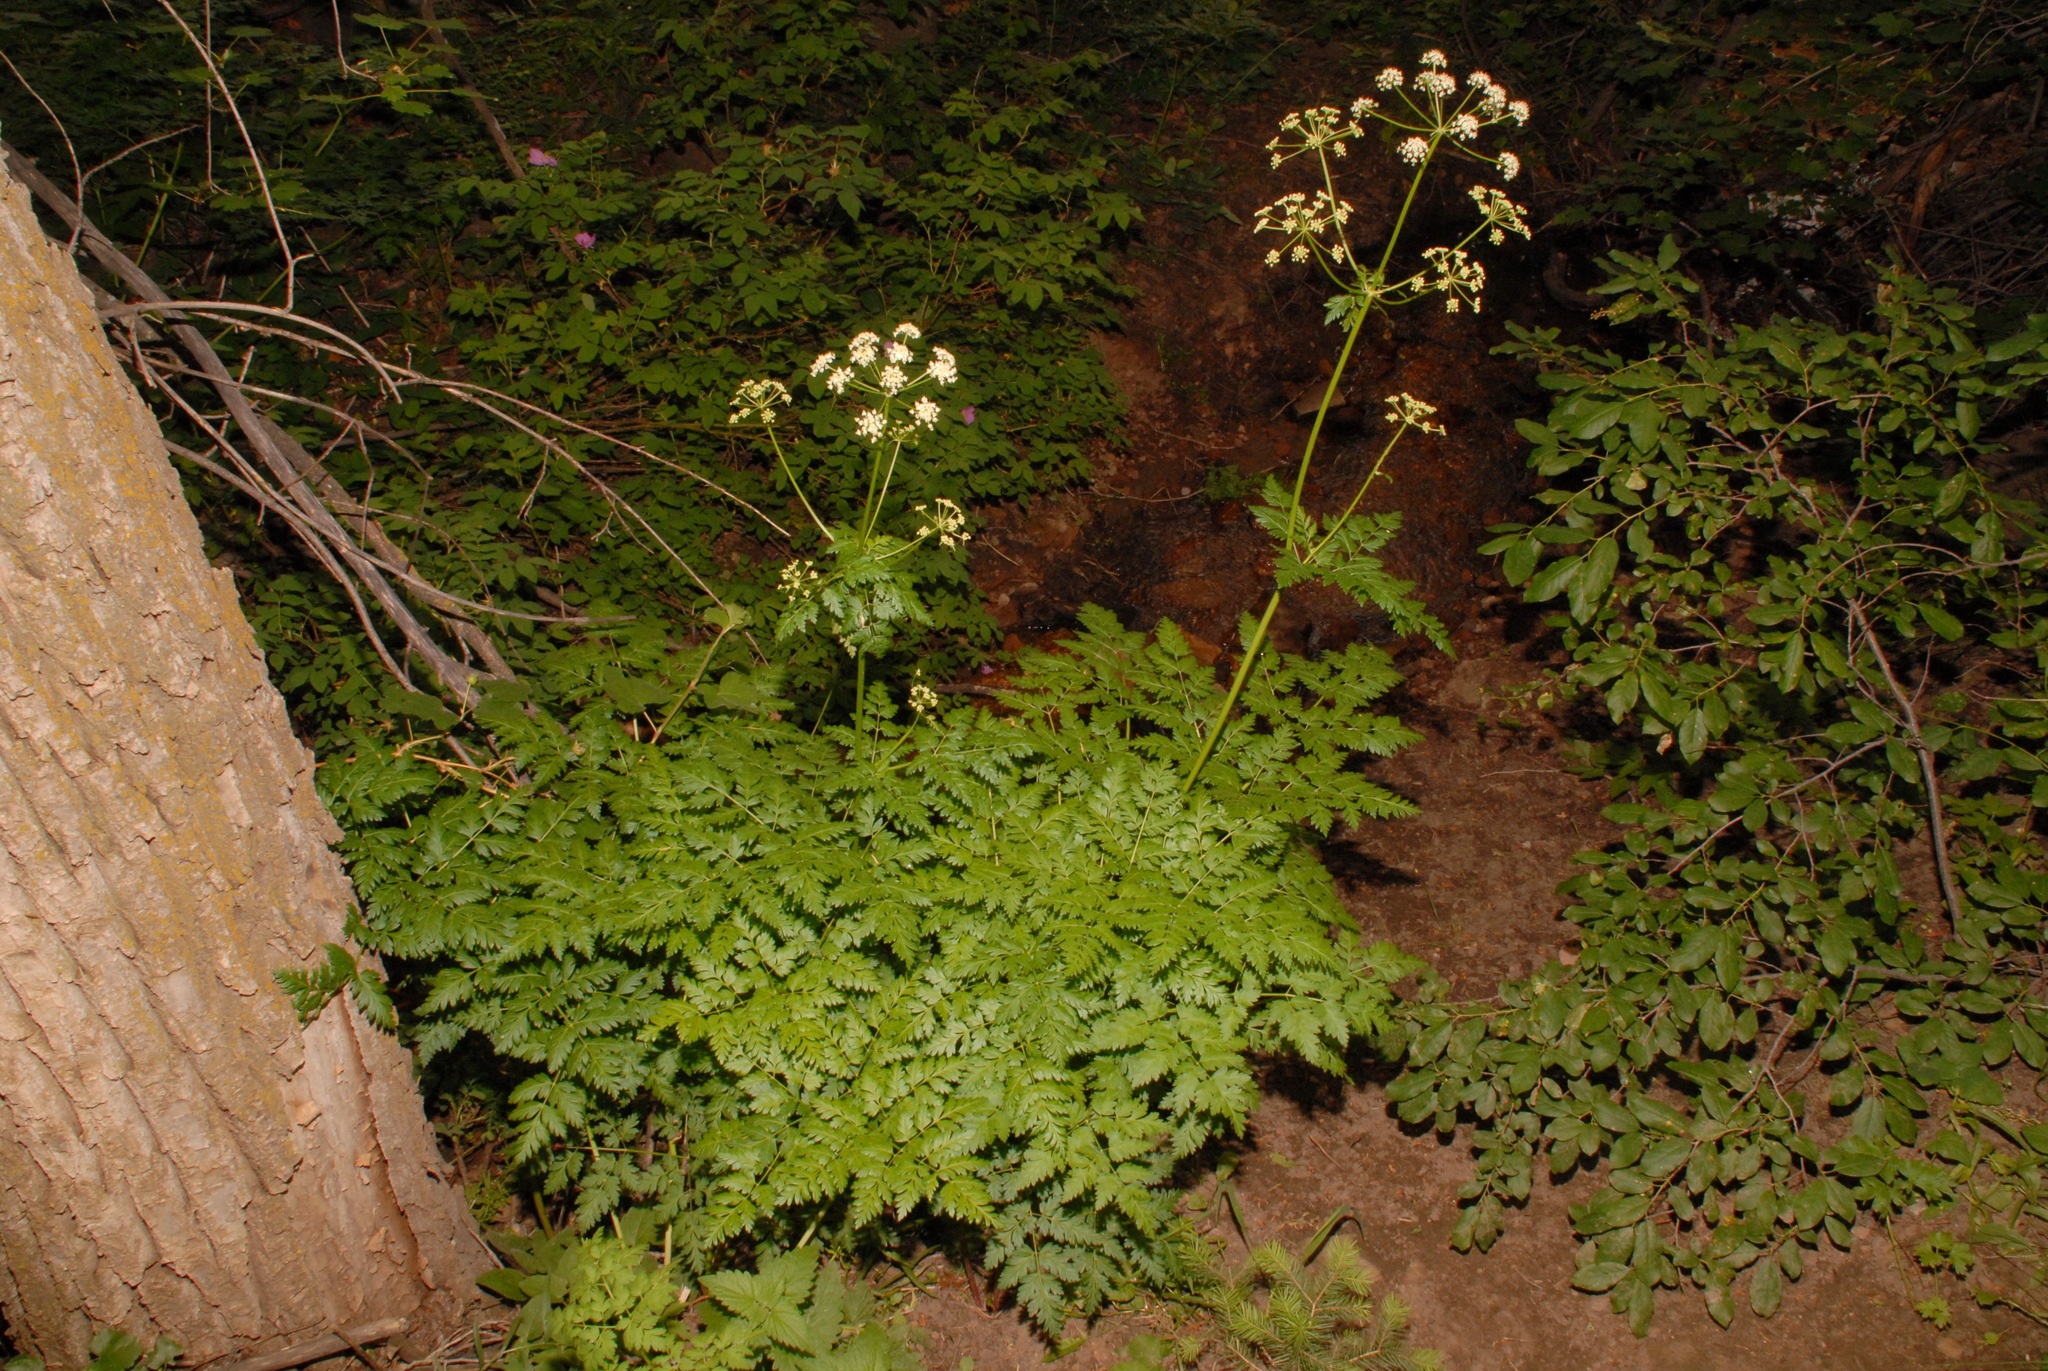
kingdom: Plantae
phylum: Tracheophyta
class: Magnoliopsida
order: Apiales
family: Apiaceae
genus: Ligusticum
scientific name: Ligusticum porteri
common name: Mountain lovage
